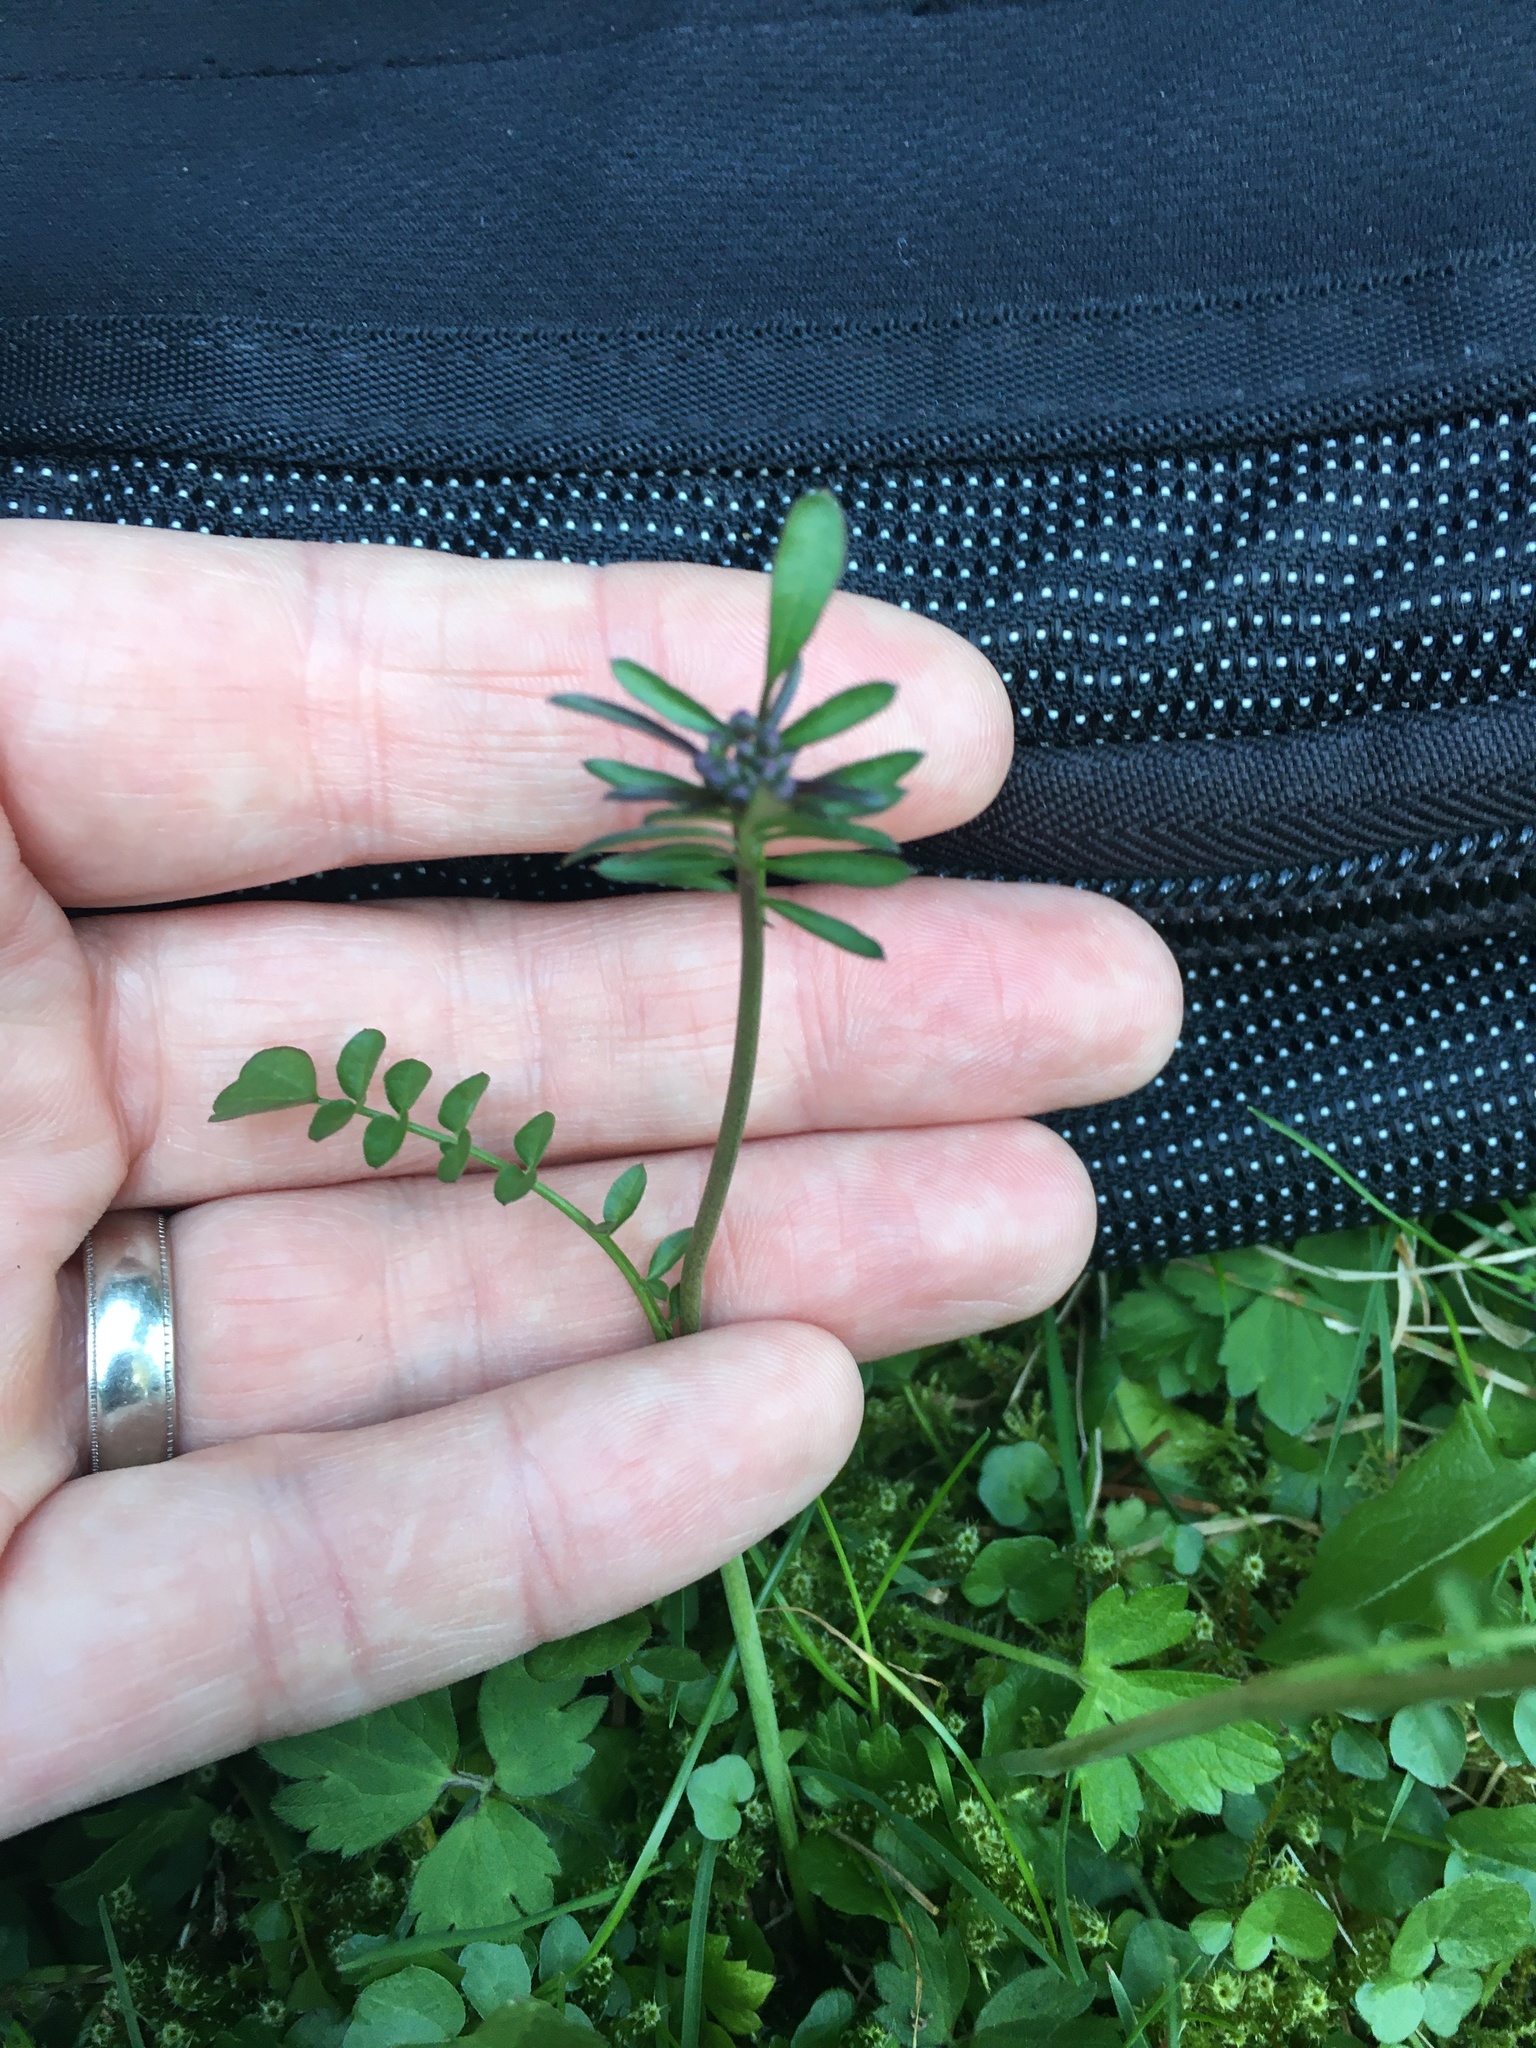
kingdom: Plantae
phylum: Tracheophyta
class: Magnoliopsida
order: Brassicales
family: Brassicaceae
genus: Cardamine
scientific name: Cardamine flexuosa
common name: Woodland bittercress
